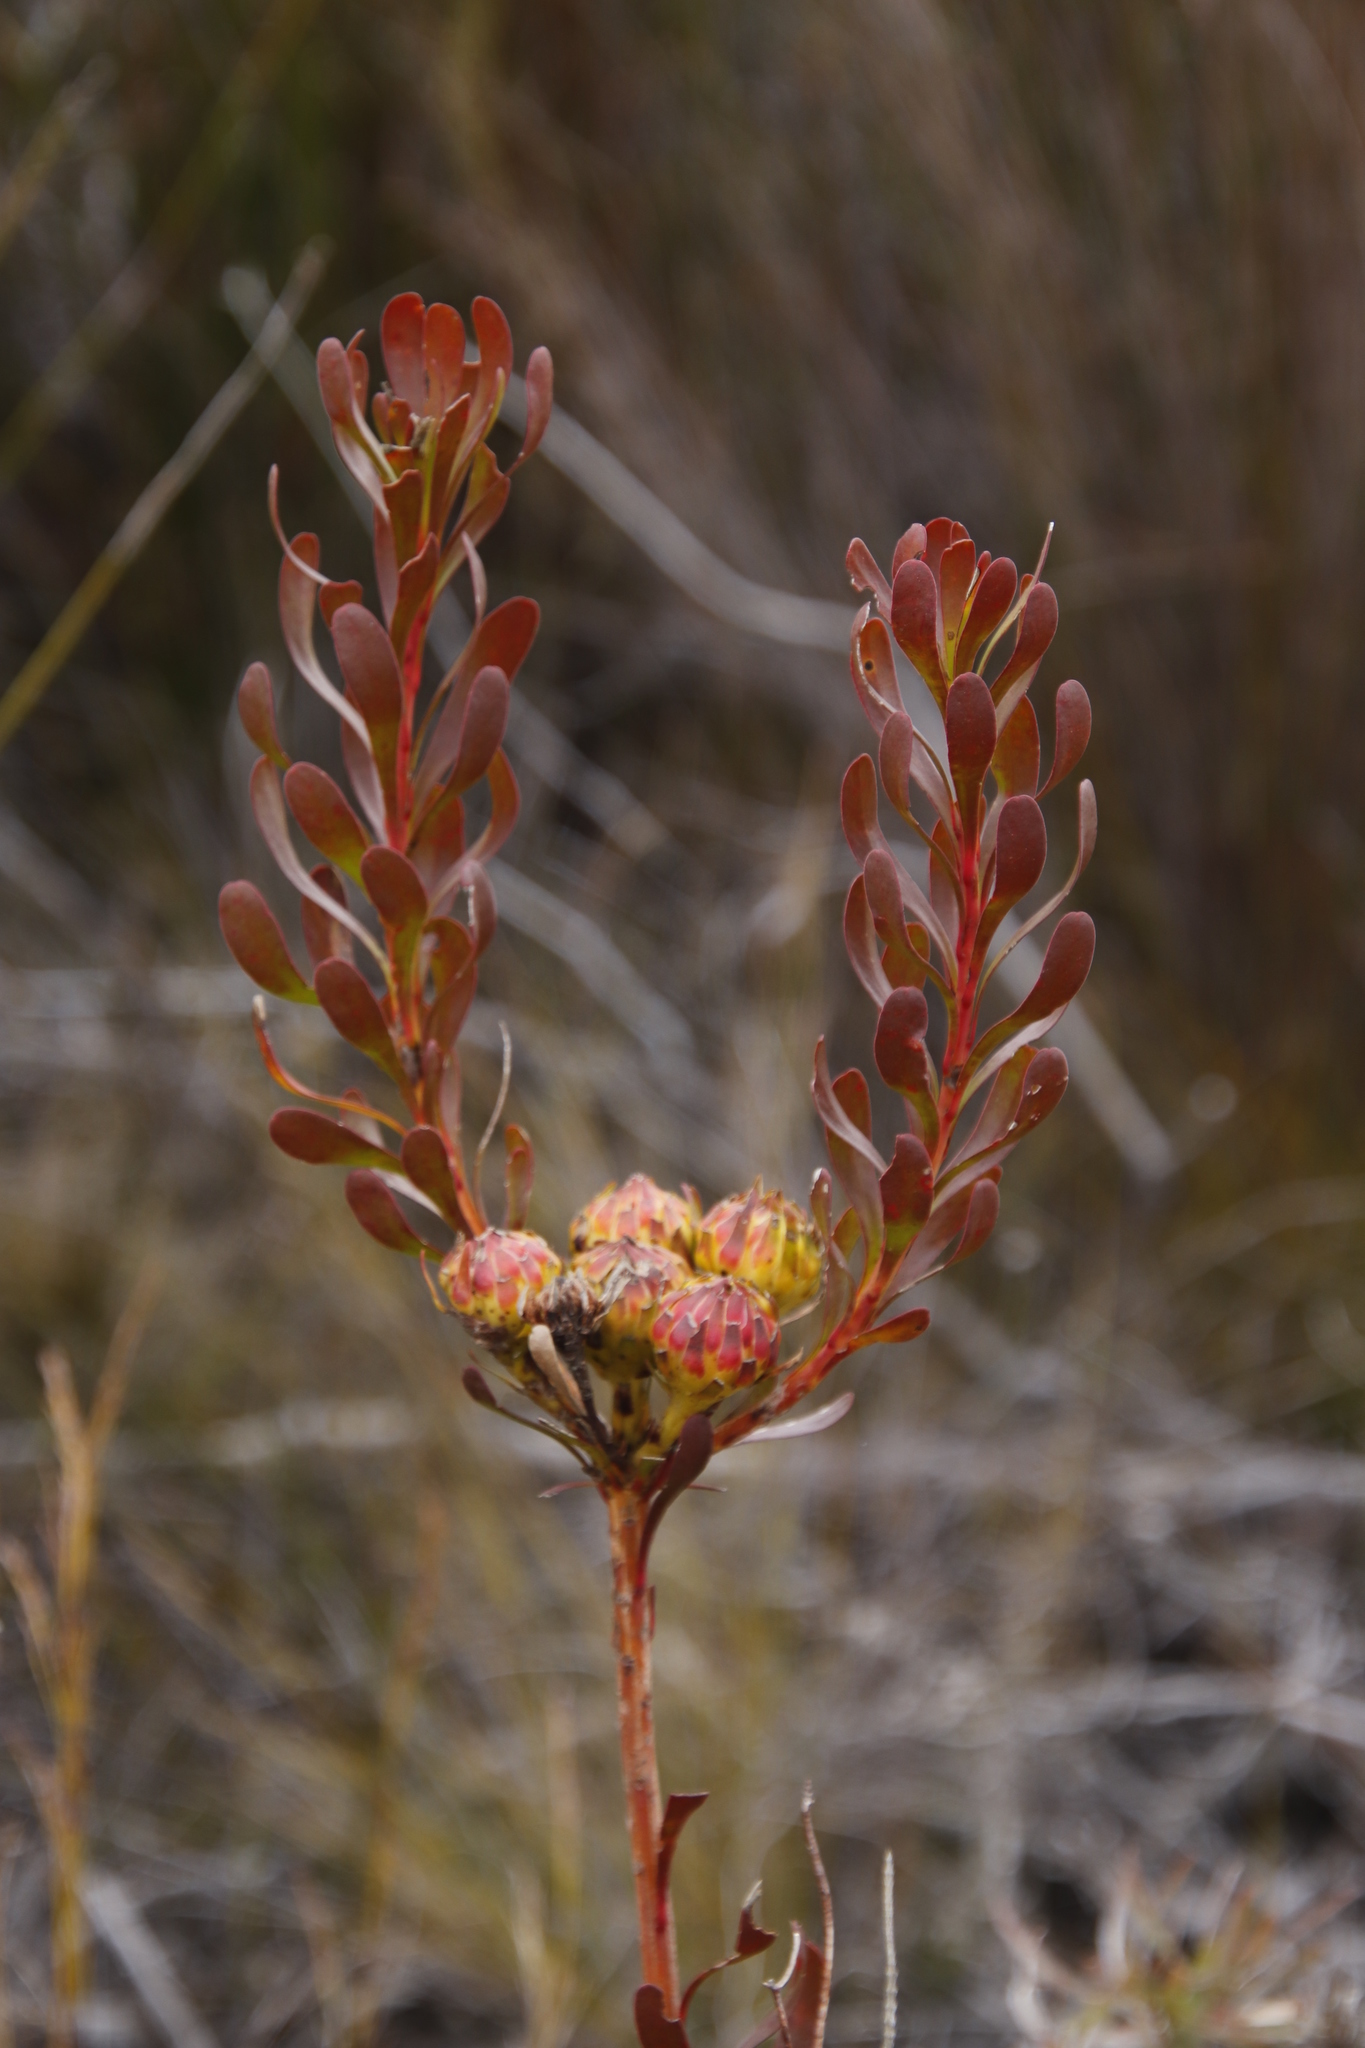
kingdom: Plantae
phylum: Tracheophyta
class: Magnoliopsida
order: Proteales
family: Proteaceae
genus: Aulax
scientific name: Aulax umbellata
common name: Broad-leaf featherbush
